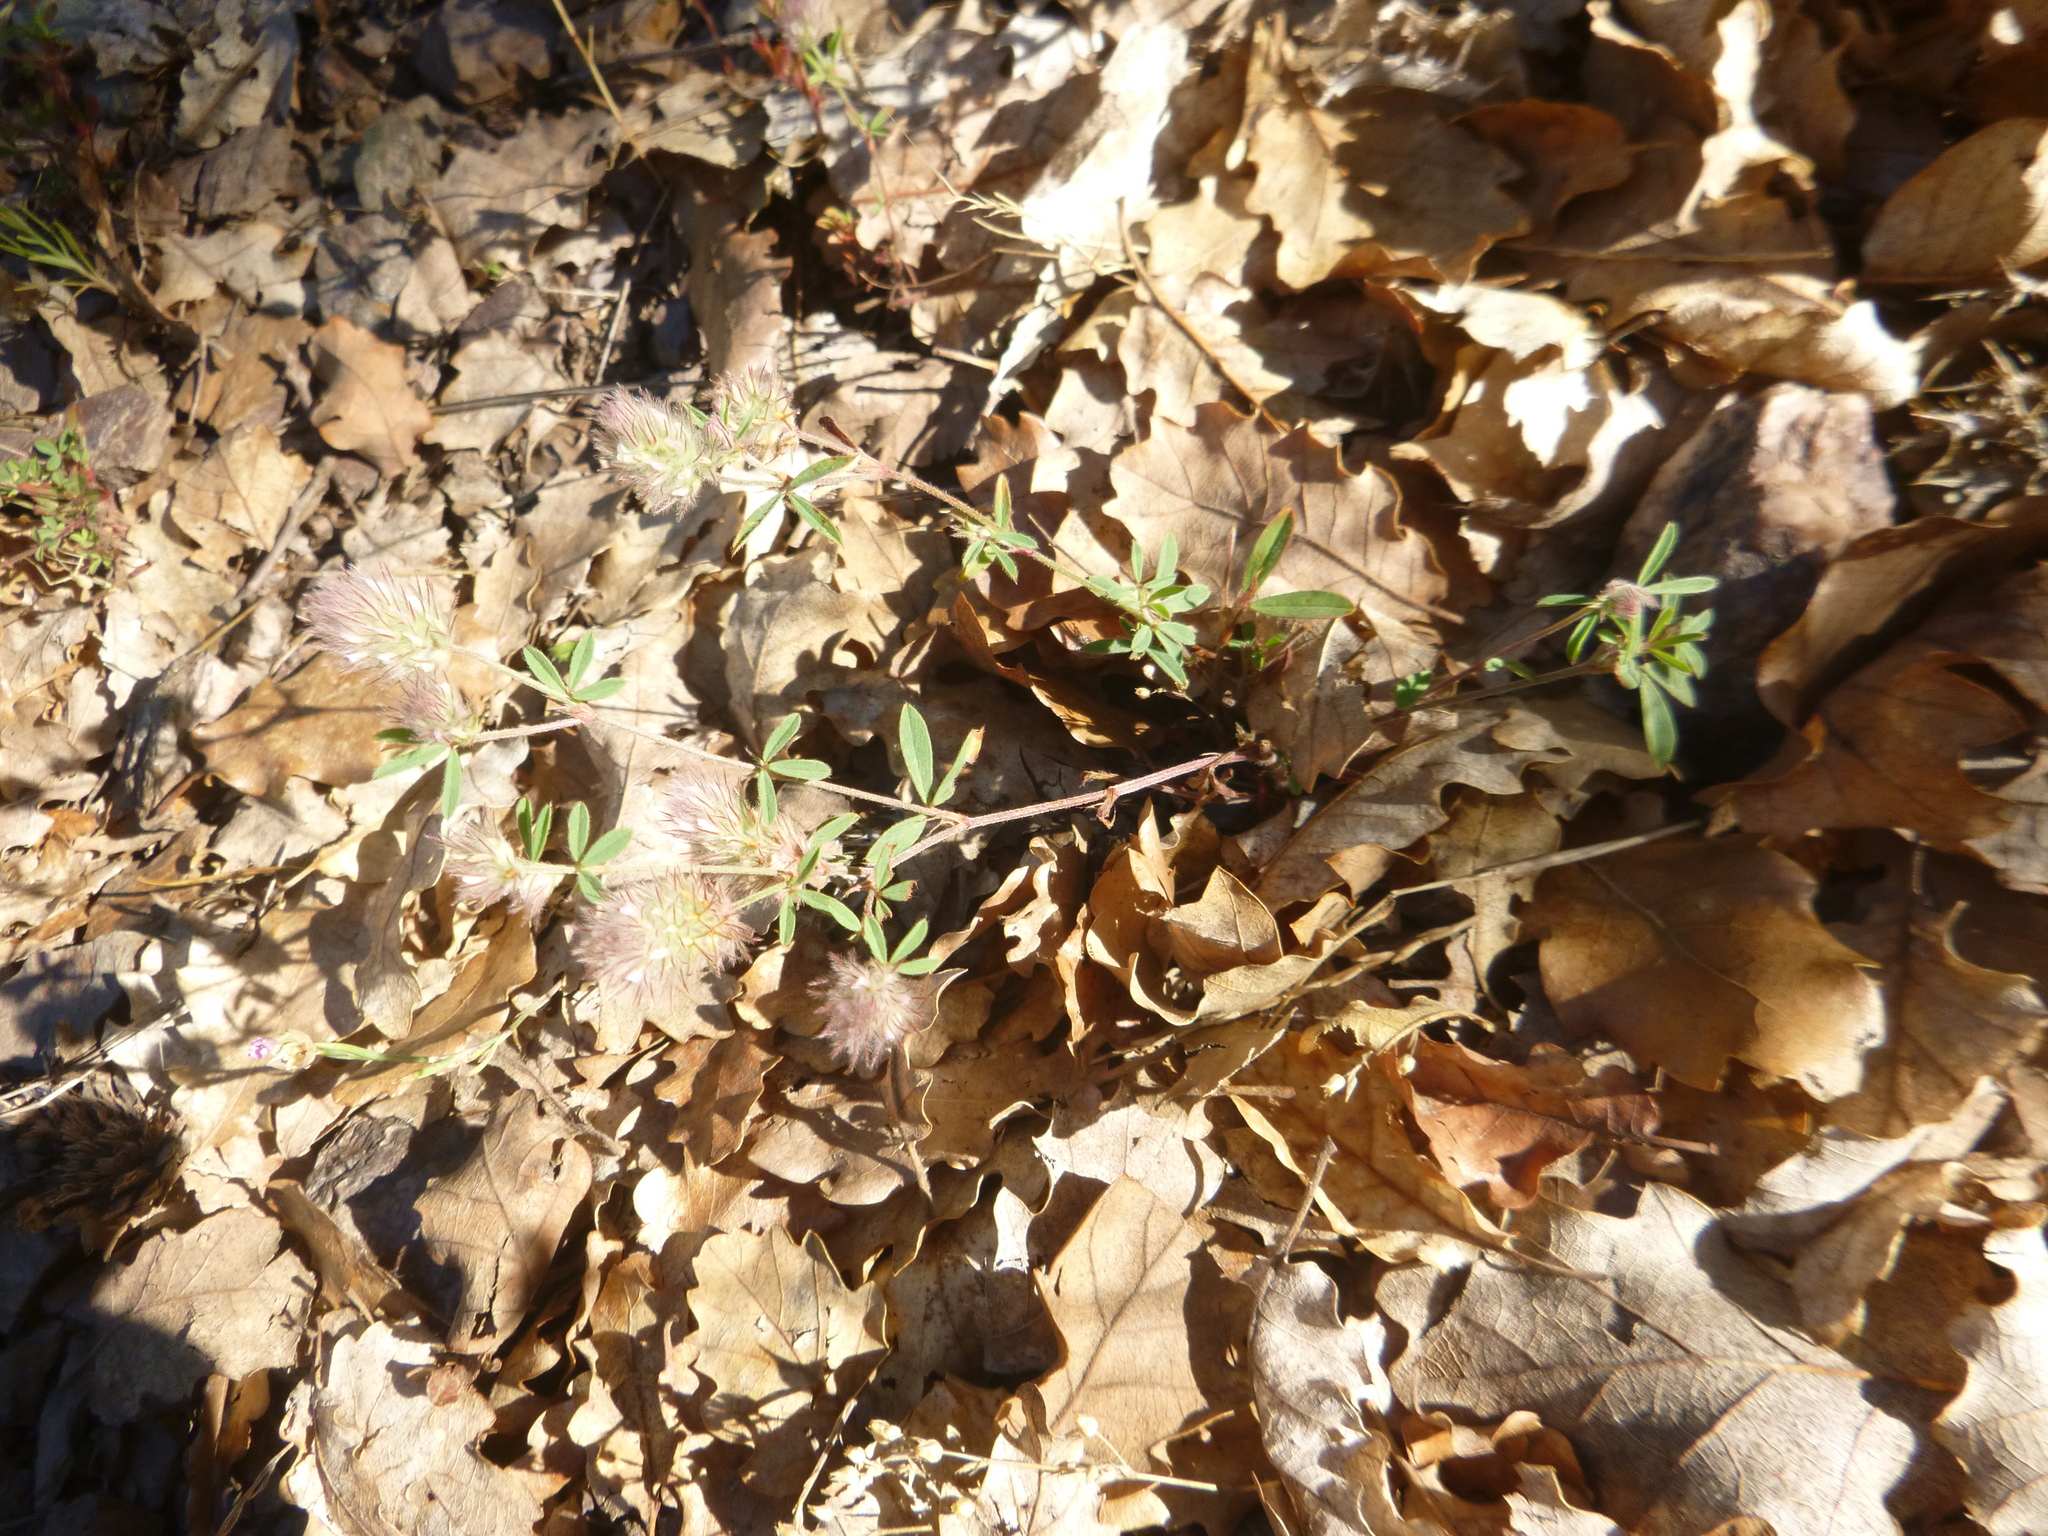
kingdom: Plantae
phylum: Tracheophyta
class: Magnoliopsida
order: Fabales
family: Fabaceae
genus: Trifolium
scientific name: Trifolium arvense
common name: Hare's-foot clover
